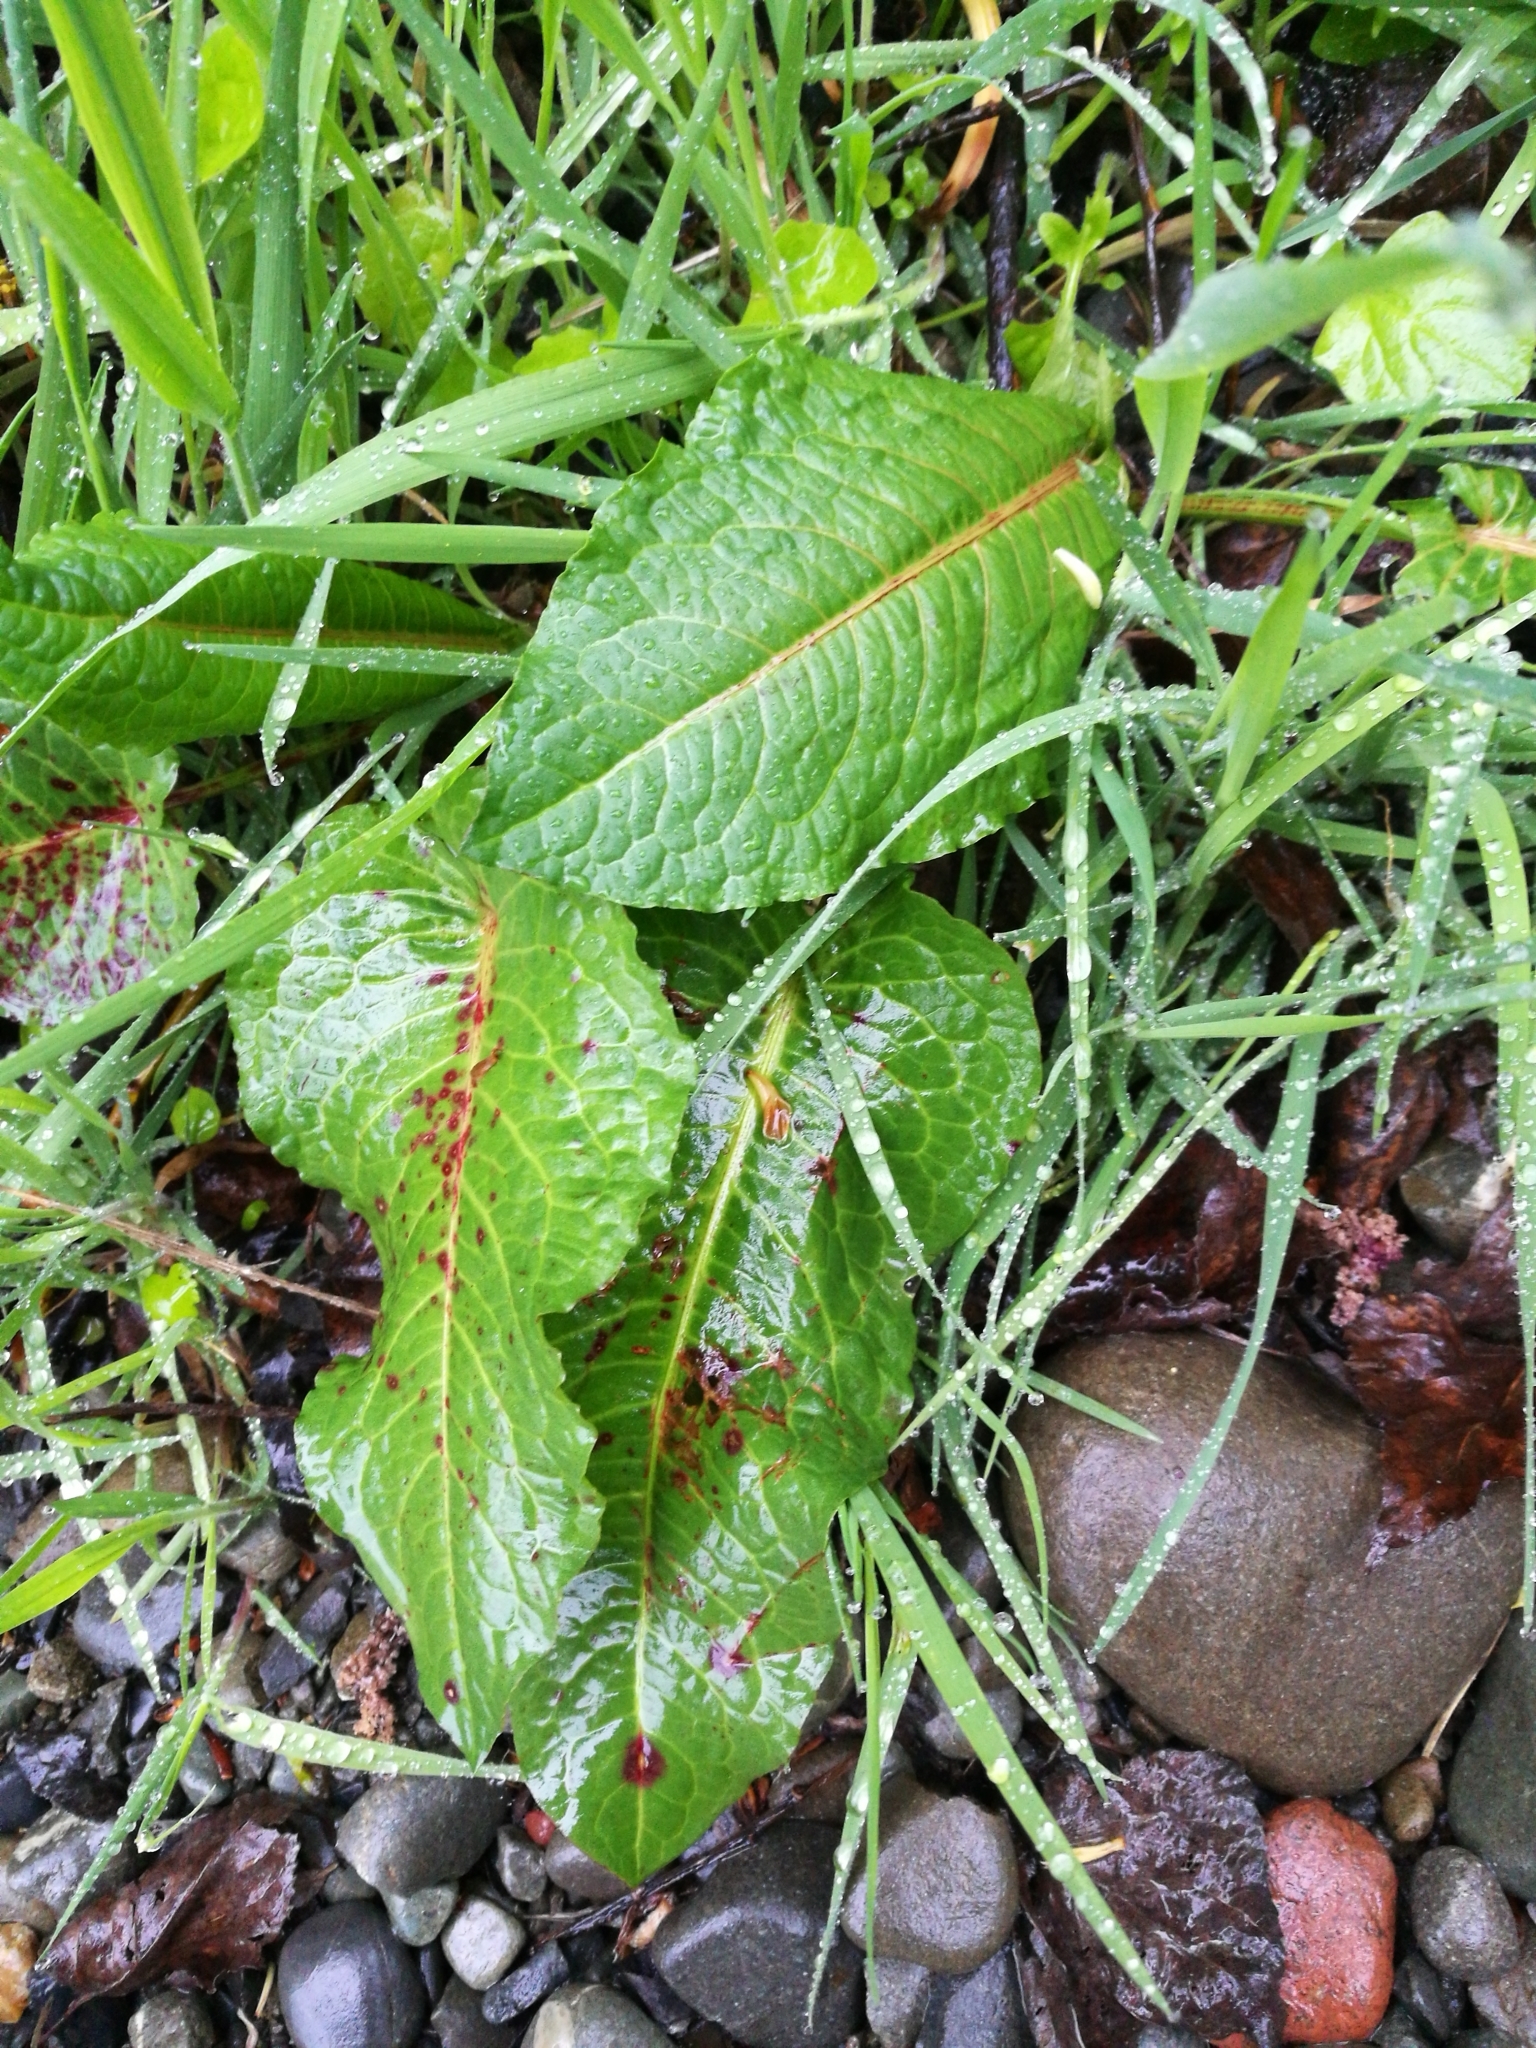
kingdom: Plantae
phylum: Tracheophyta
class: Magnoliopsida
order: Caryophyllales
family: Polygonaceae
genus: Rumex
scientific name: Rumex obtusifolius
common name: Bitter dock
